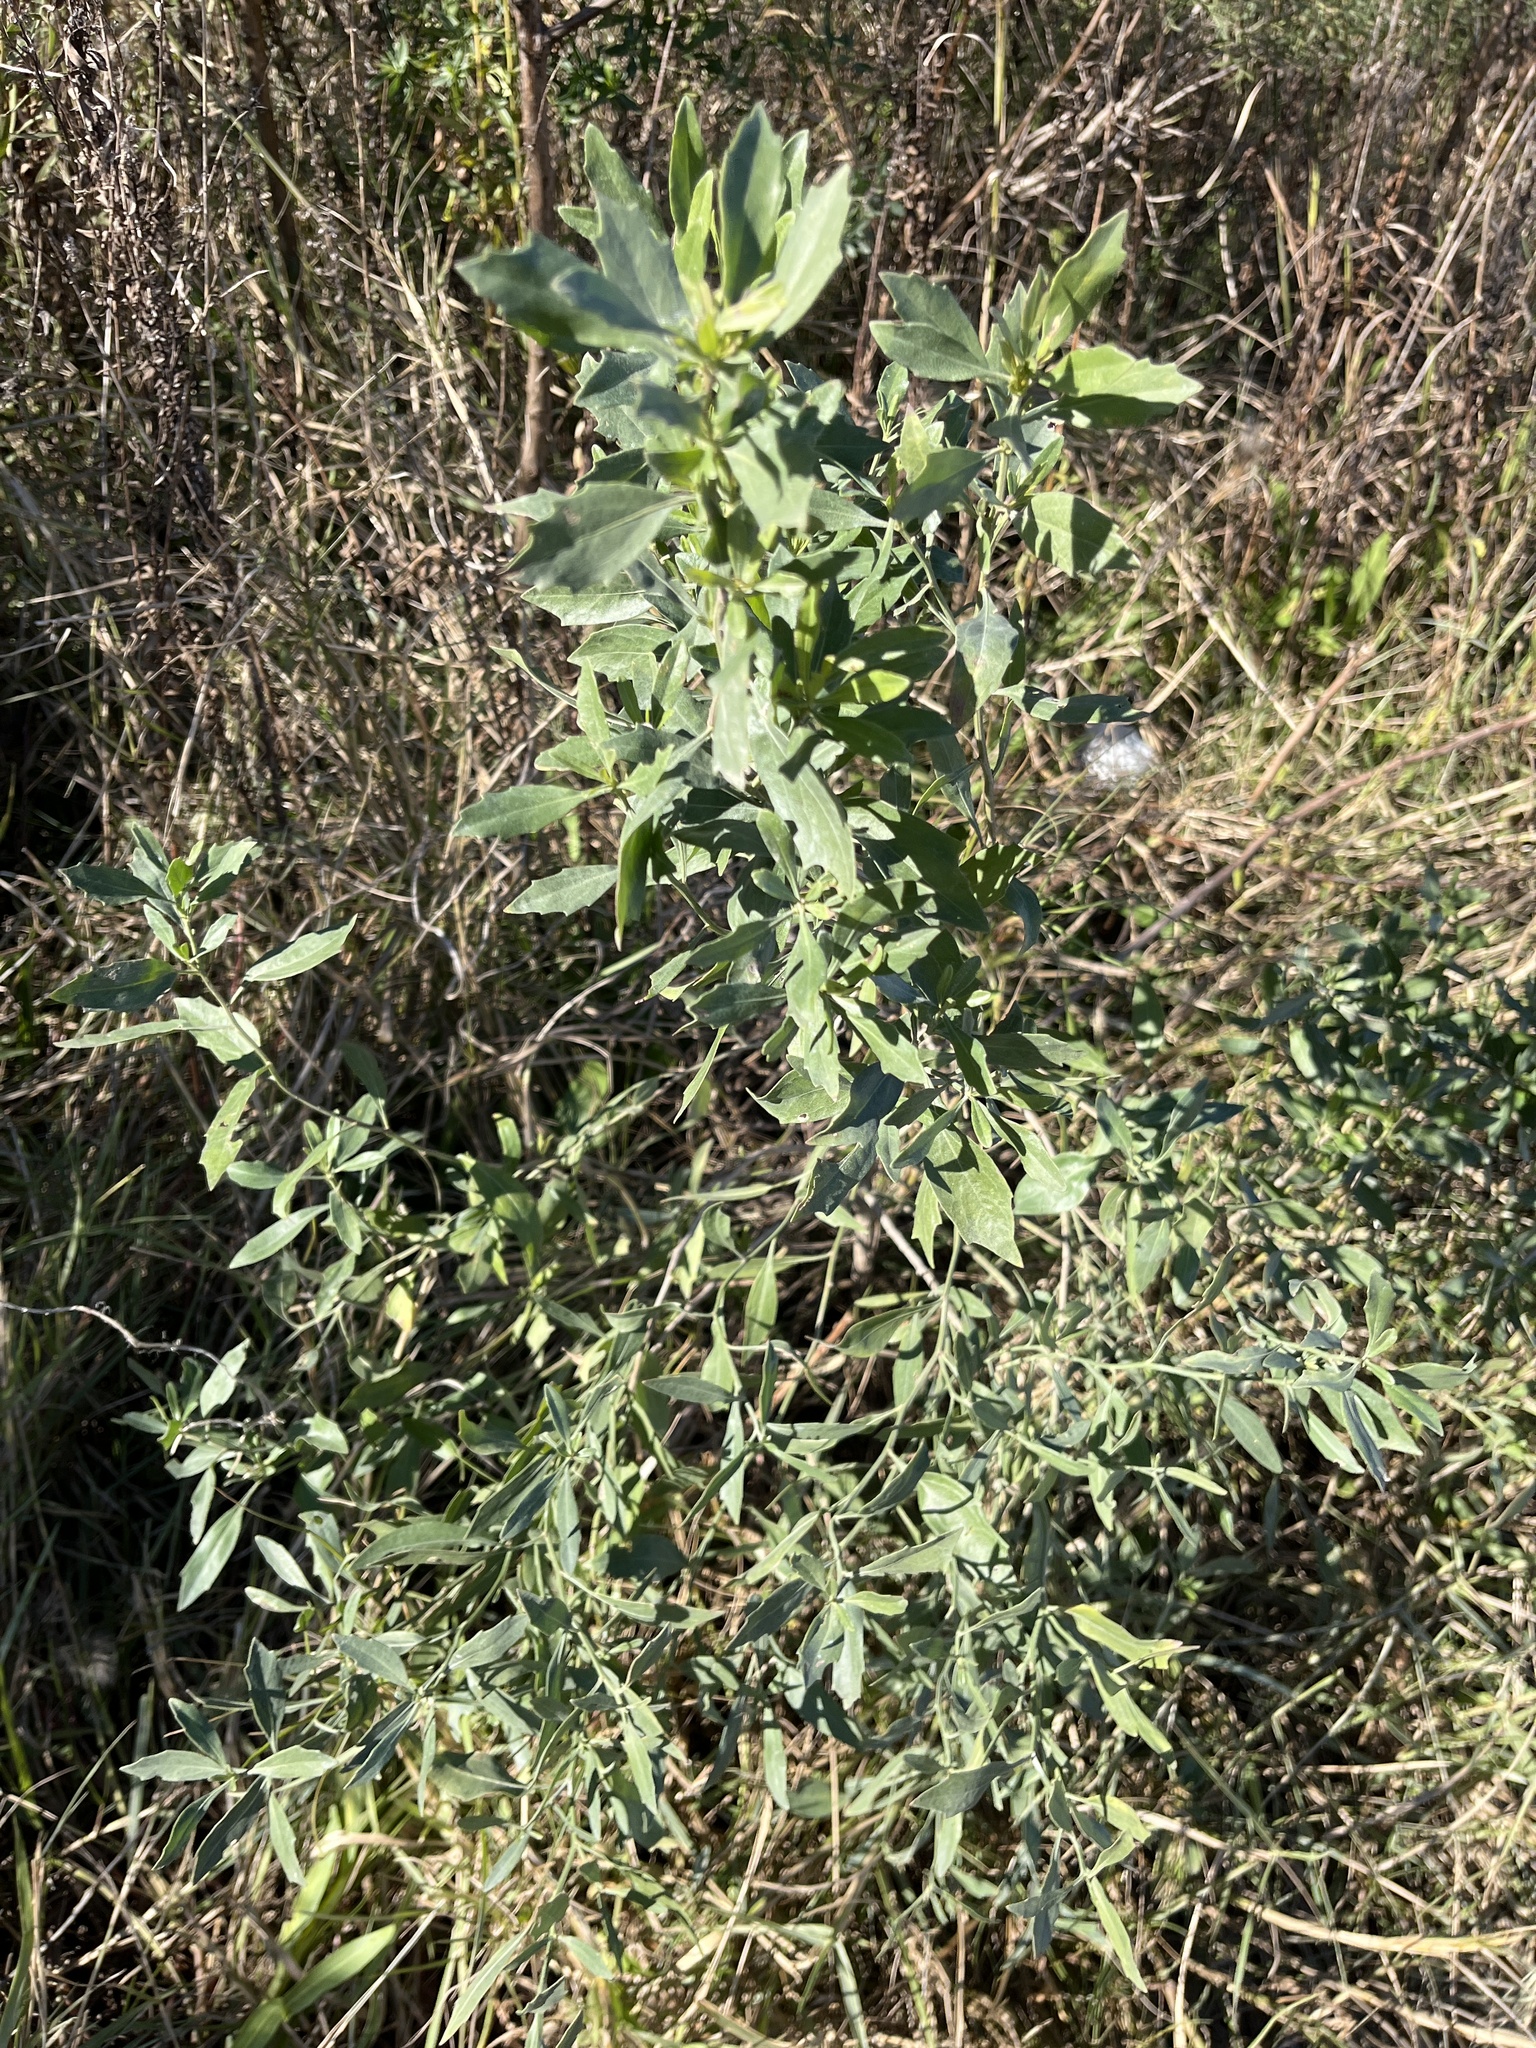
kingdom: Plantae
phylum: Tracheophyta
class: Magnoliopsida
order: Asterales
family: Asteraceae
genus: Baccharis
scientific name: Baccharis halimifolia
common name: Eastern baccharis
